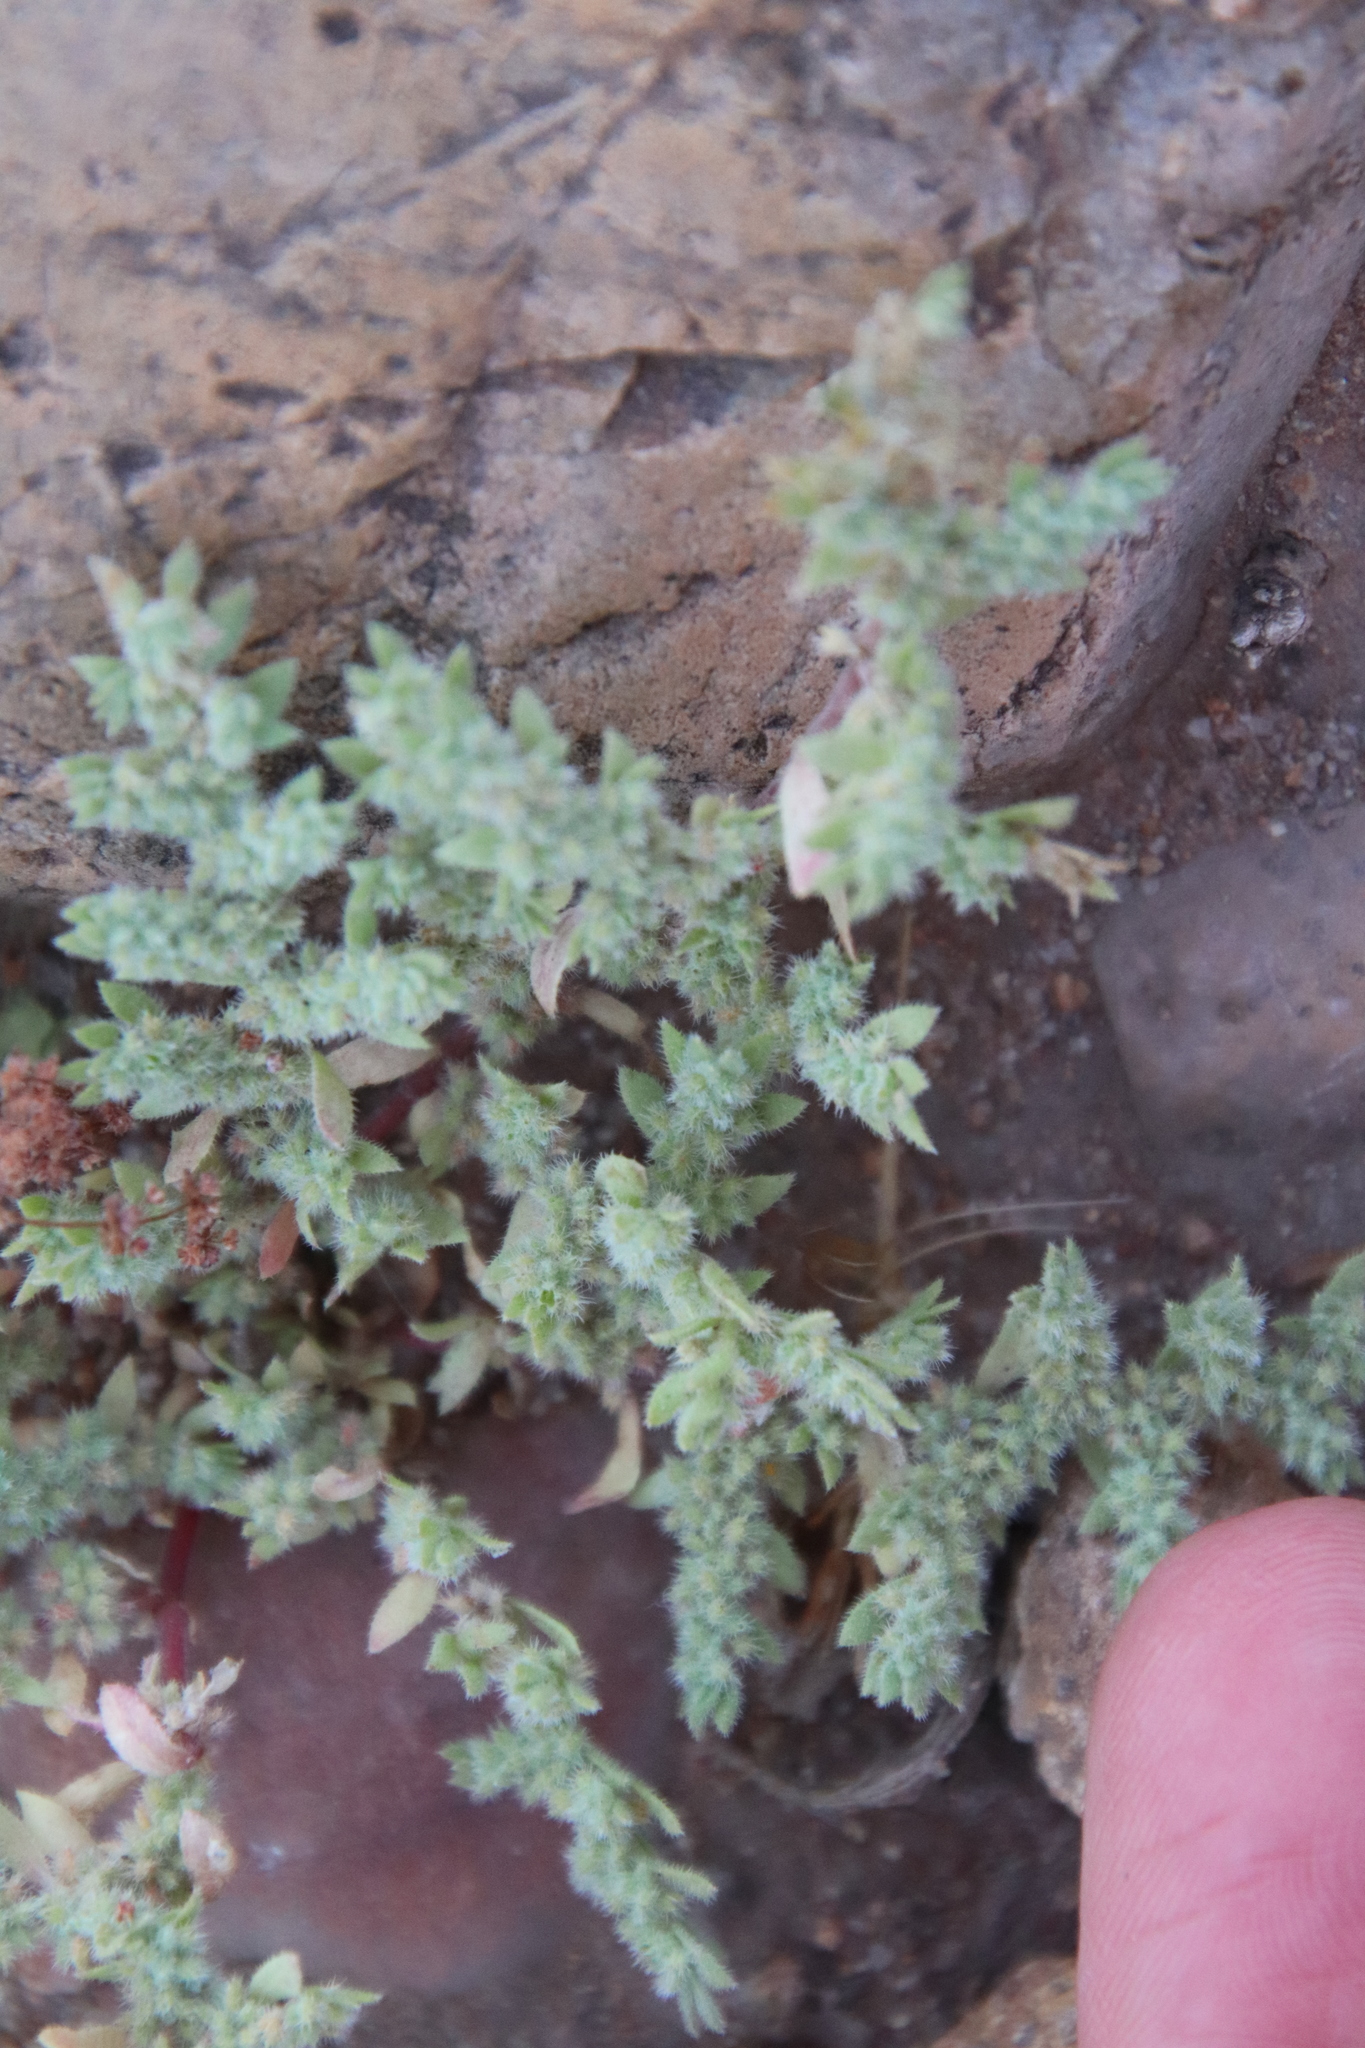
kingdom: Plantae
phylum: Tracheophyta
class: Magnoliopsida
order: Caryophyllales
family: Caryophyllaceae
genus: Herniaria
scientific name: Herniaria hirsuta
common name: Hairy rupturewort
